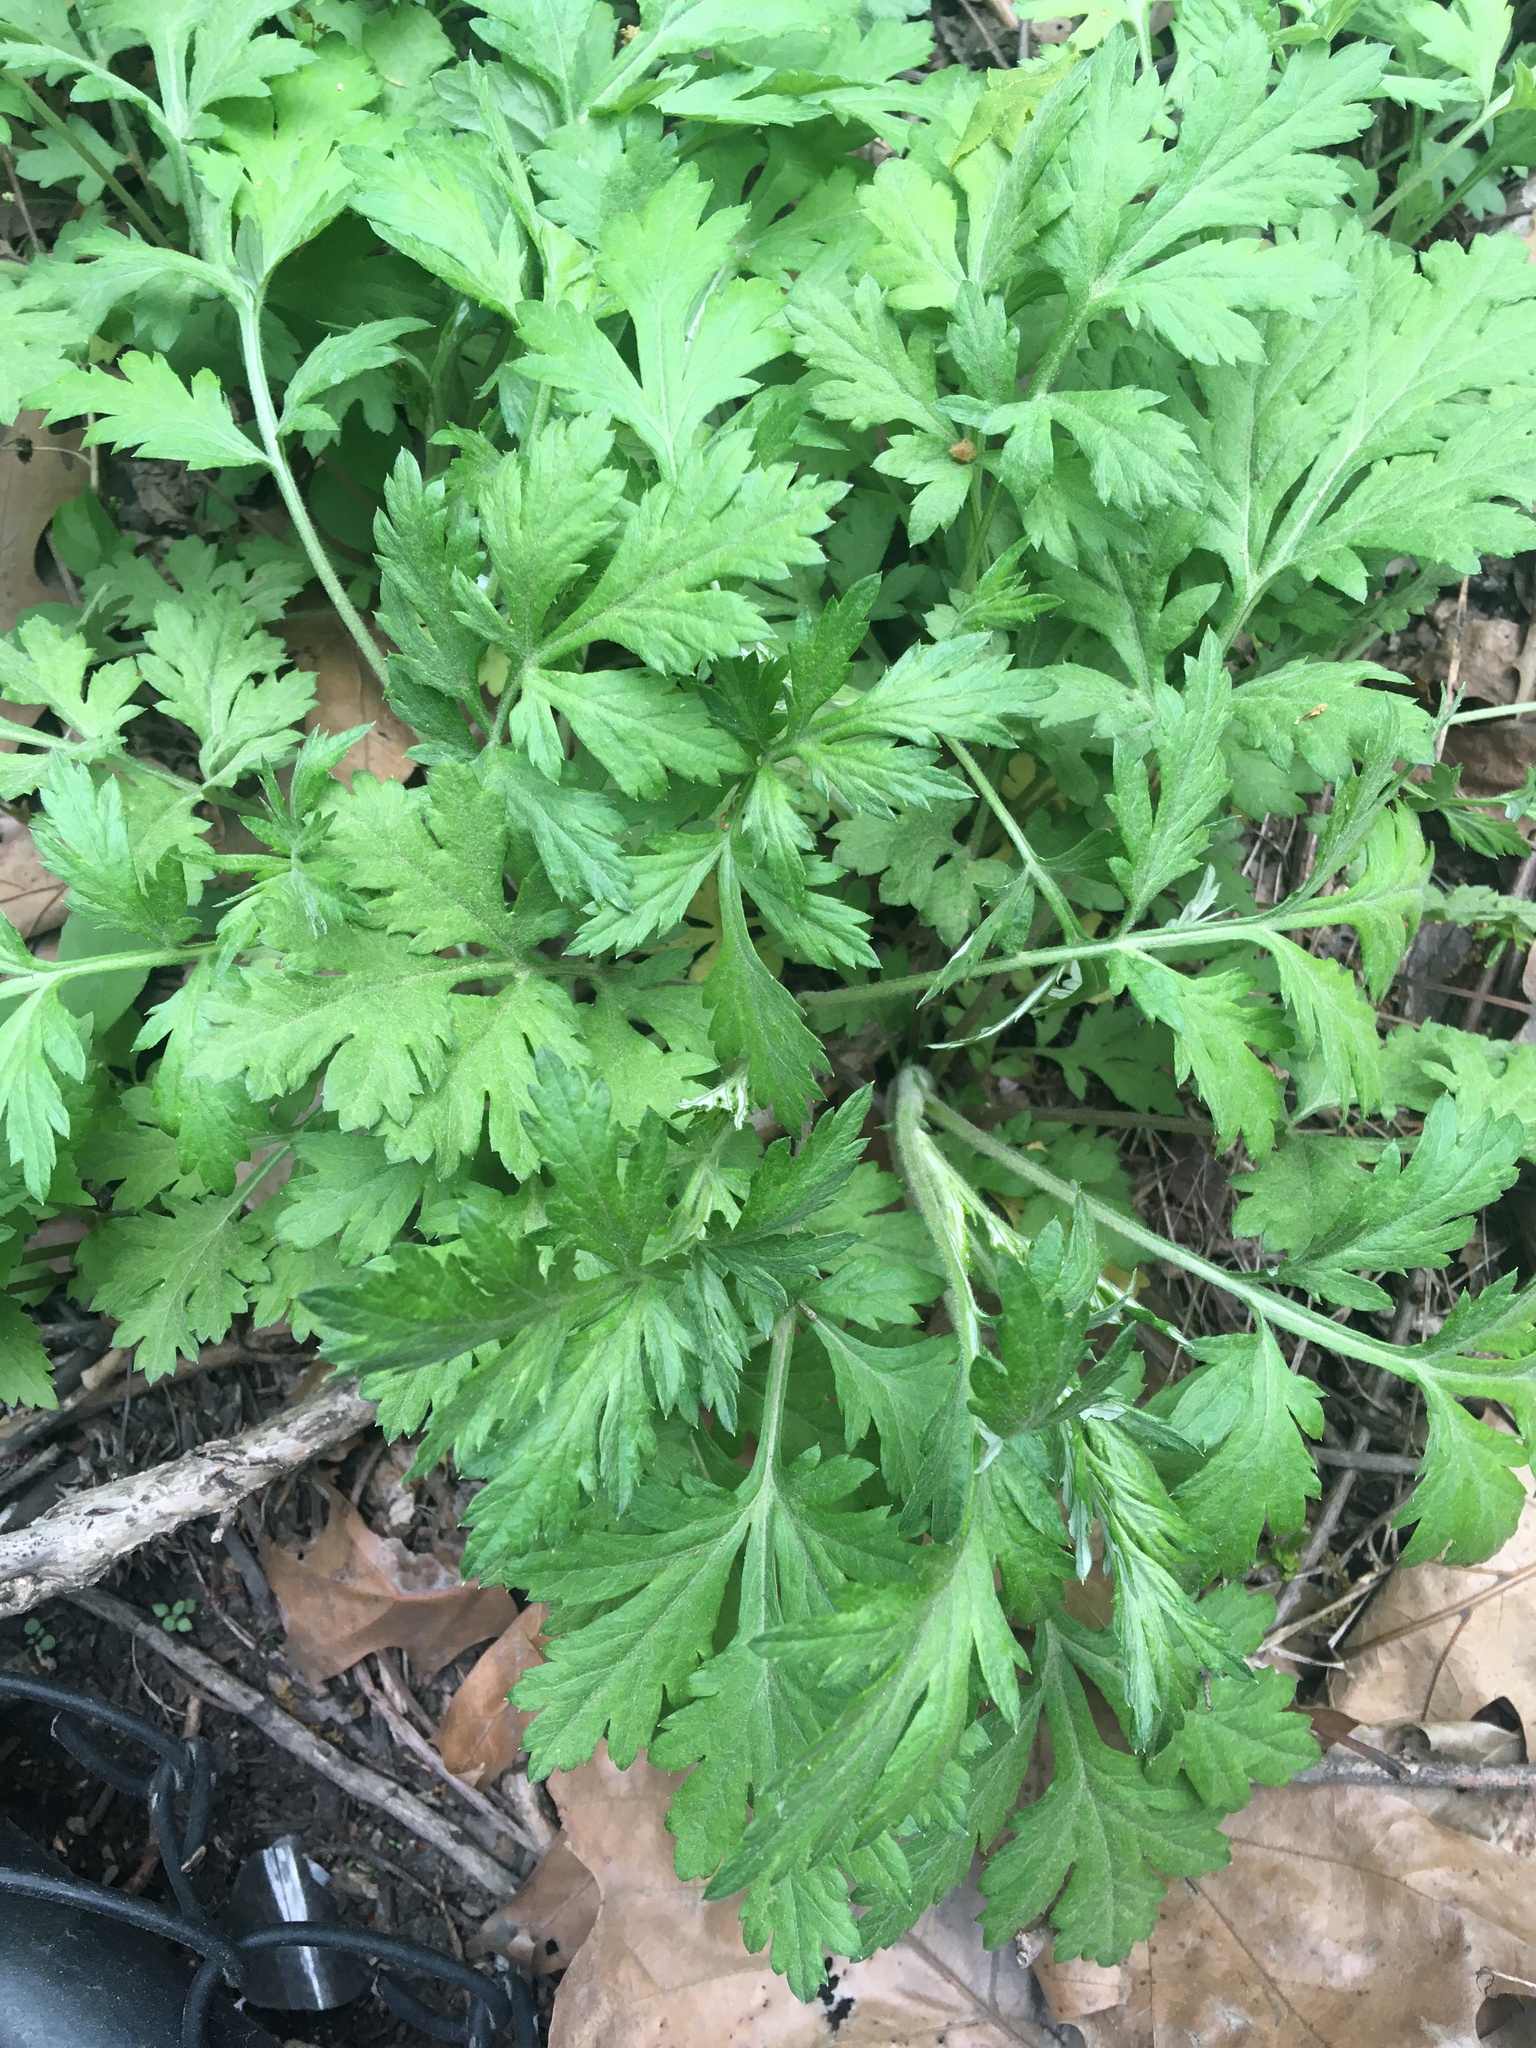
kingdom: Plantae
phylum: Tracheophyta
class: Magnoliopsida
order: Asterales
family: Asteraceae
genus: Artemisia
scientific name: Artemisia vulgaris
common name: Mugwort
